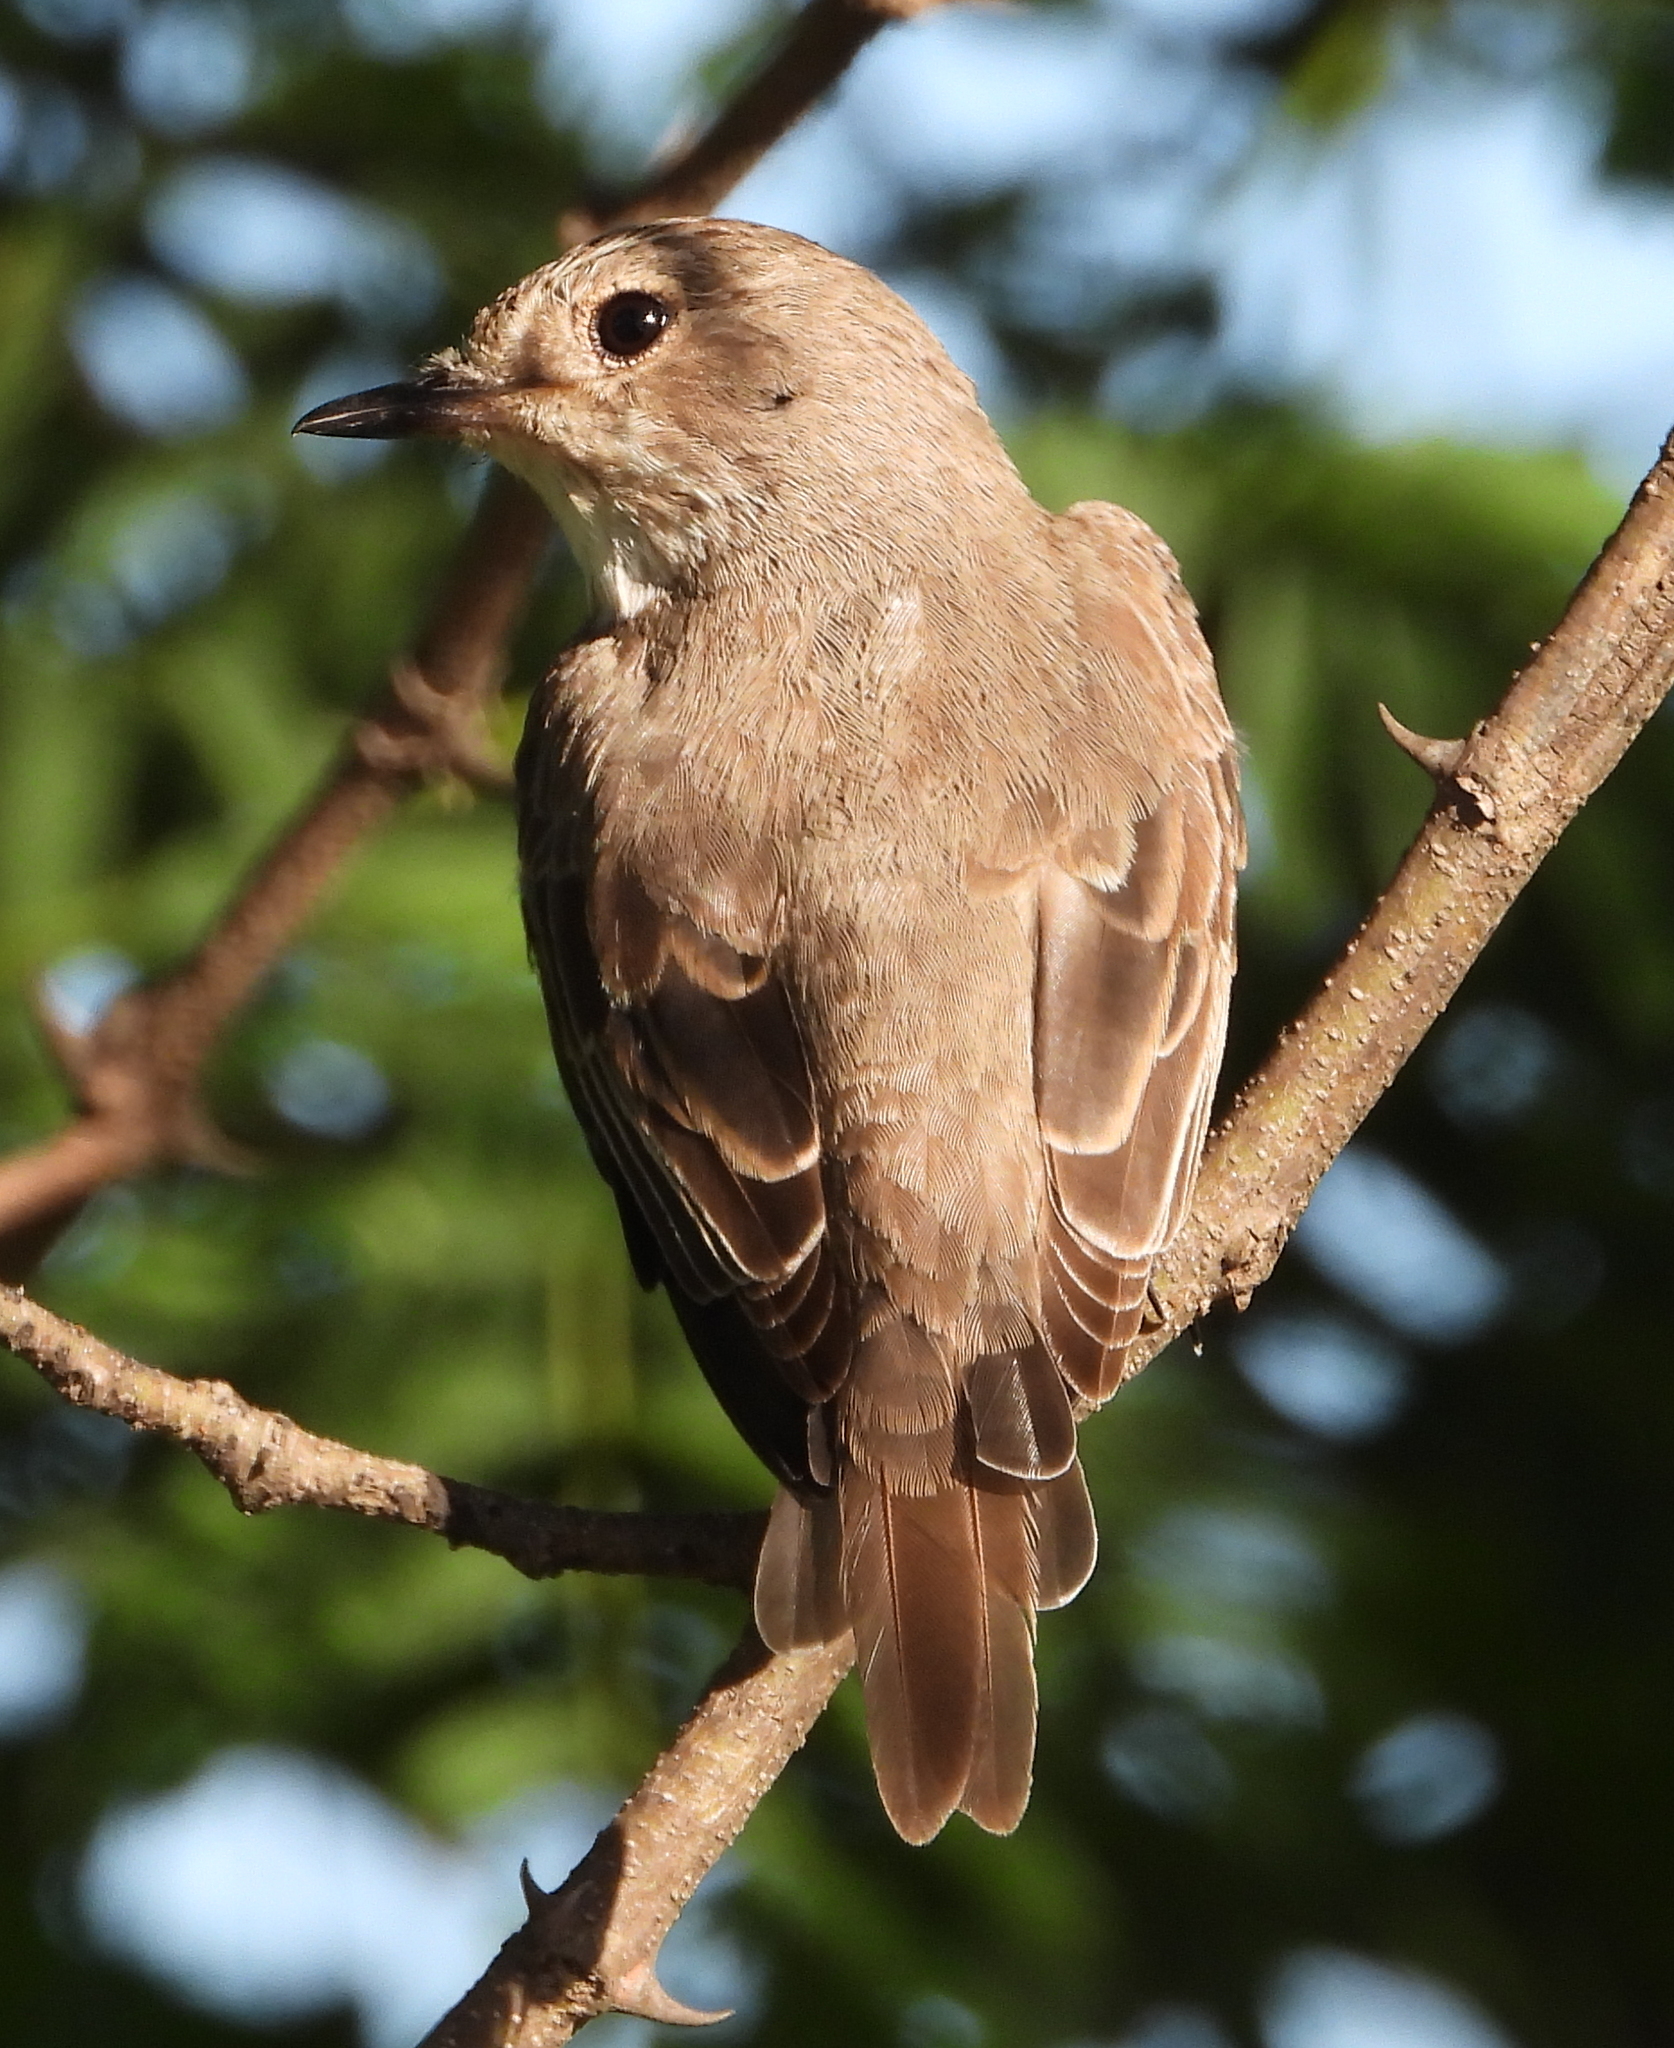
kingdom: Animalia
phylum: Chordata
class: Aves
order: Passeriformes
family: Muscicapidae
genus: Muscicapa
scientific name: Muscicapa striata
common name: Spotted flycatcher
